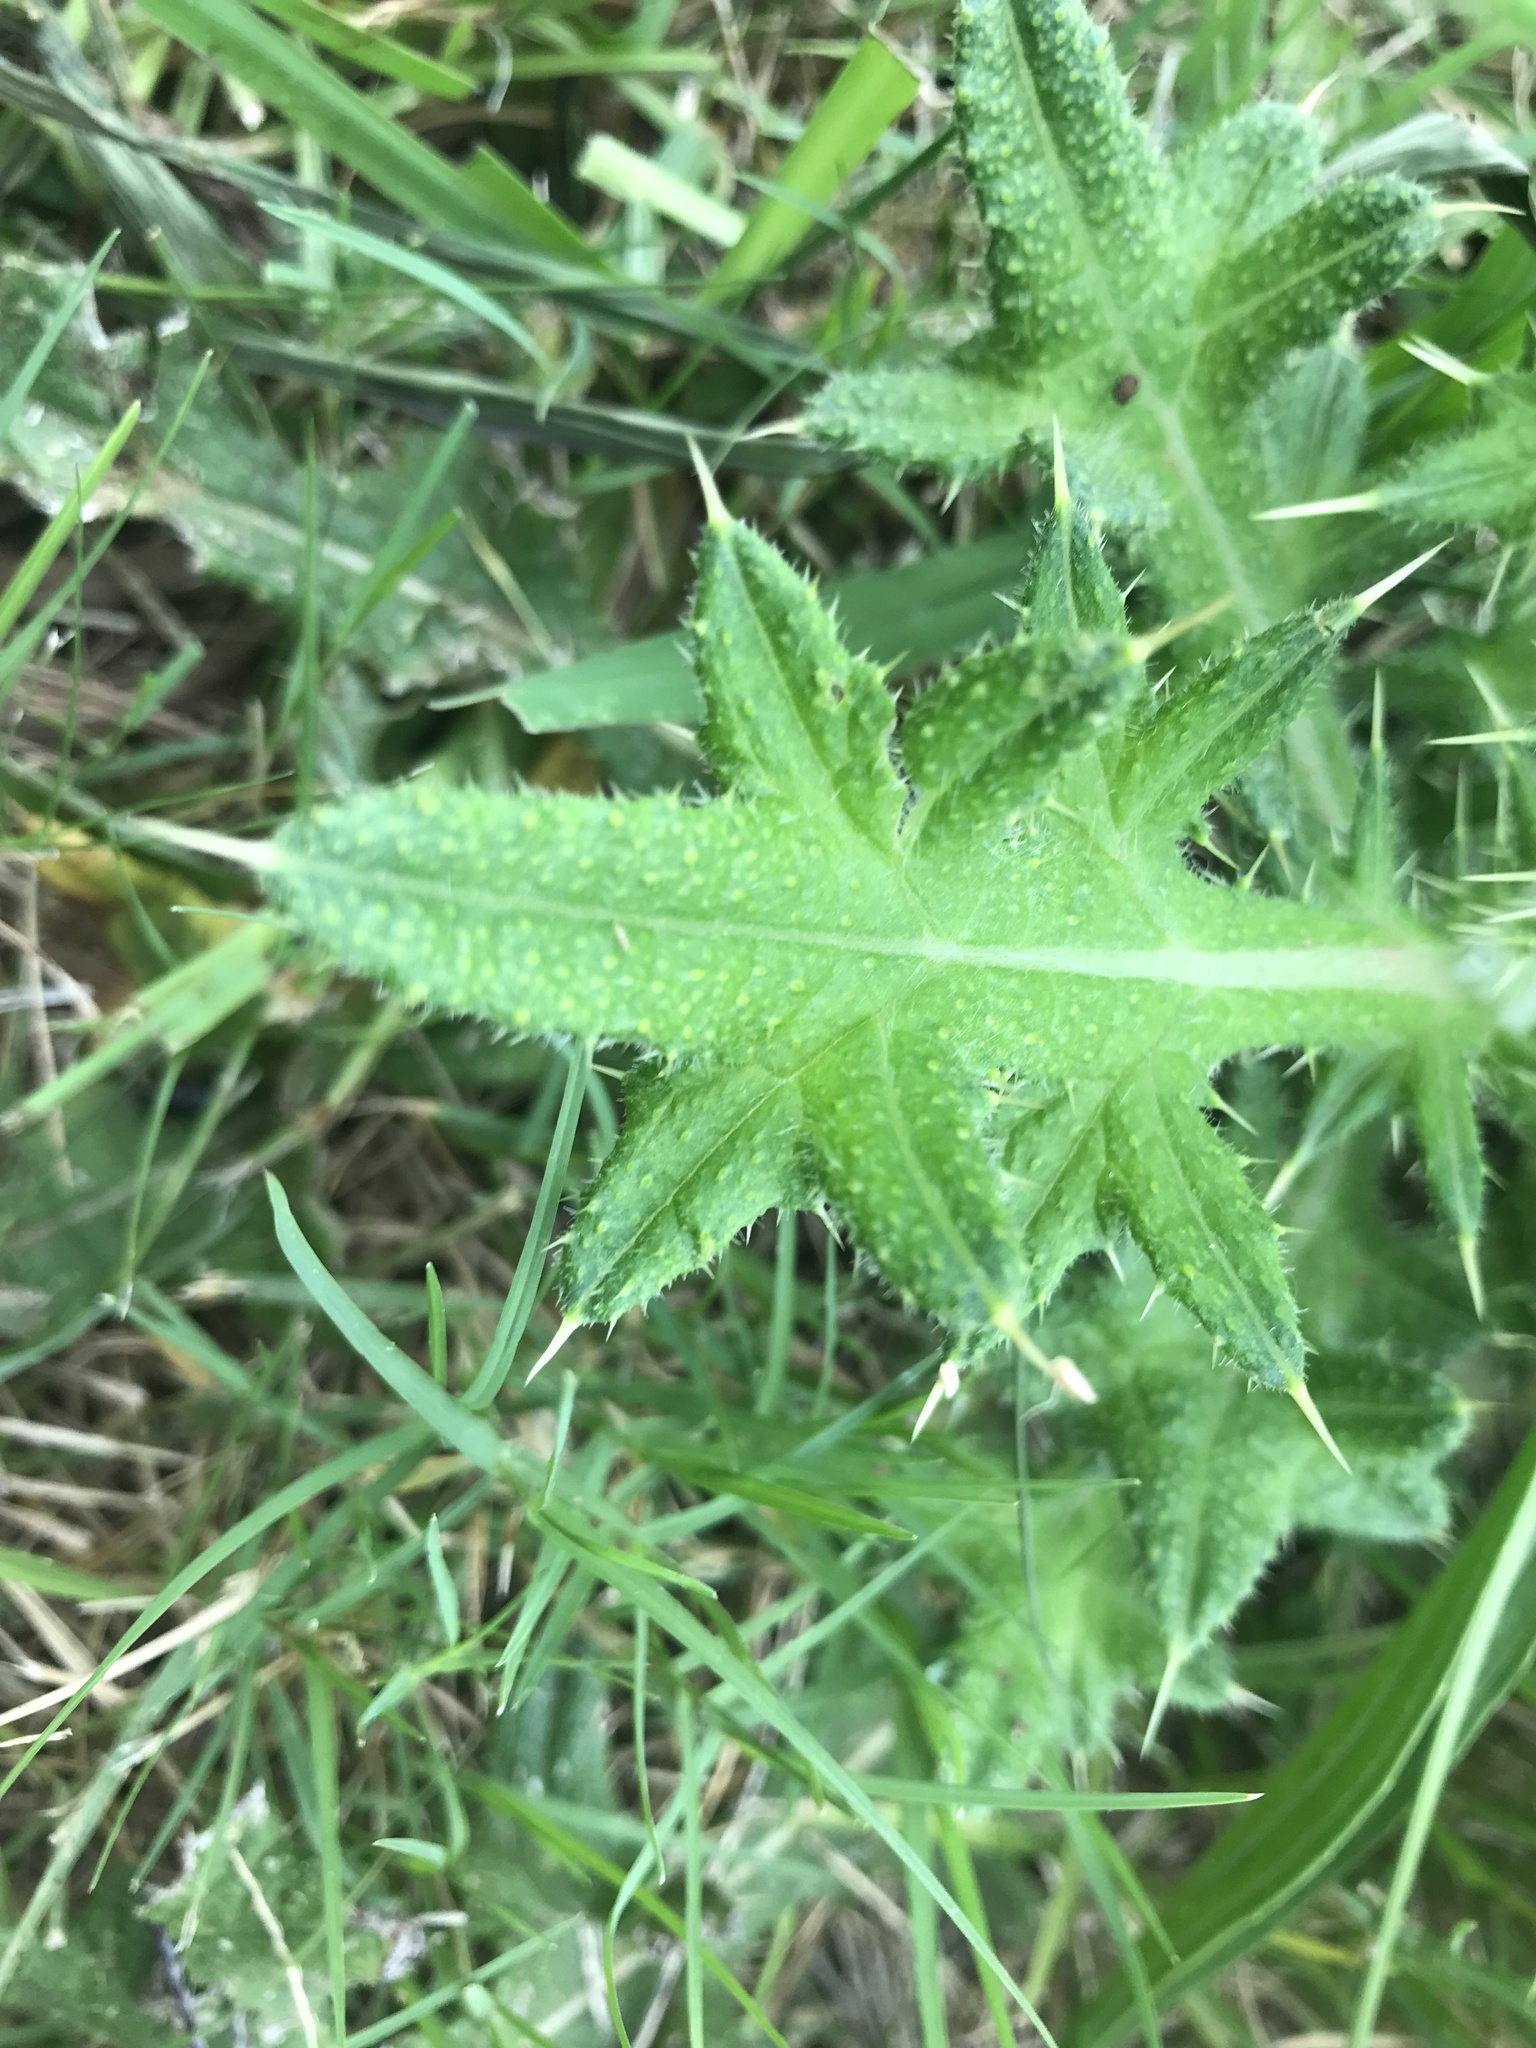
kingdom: Plantae
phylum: Tracheophyta
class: Magnoliopsida
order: Asterales
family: Asteraceae
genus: Cirsium
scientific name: Cirsium vulgare
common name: Bull thistle
